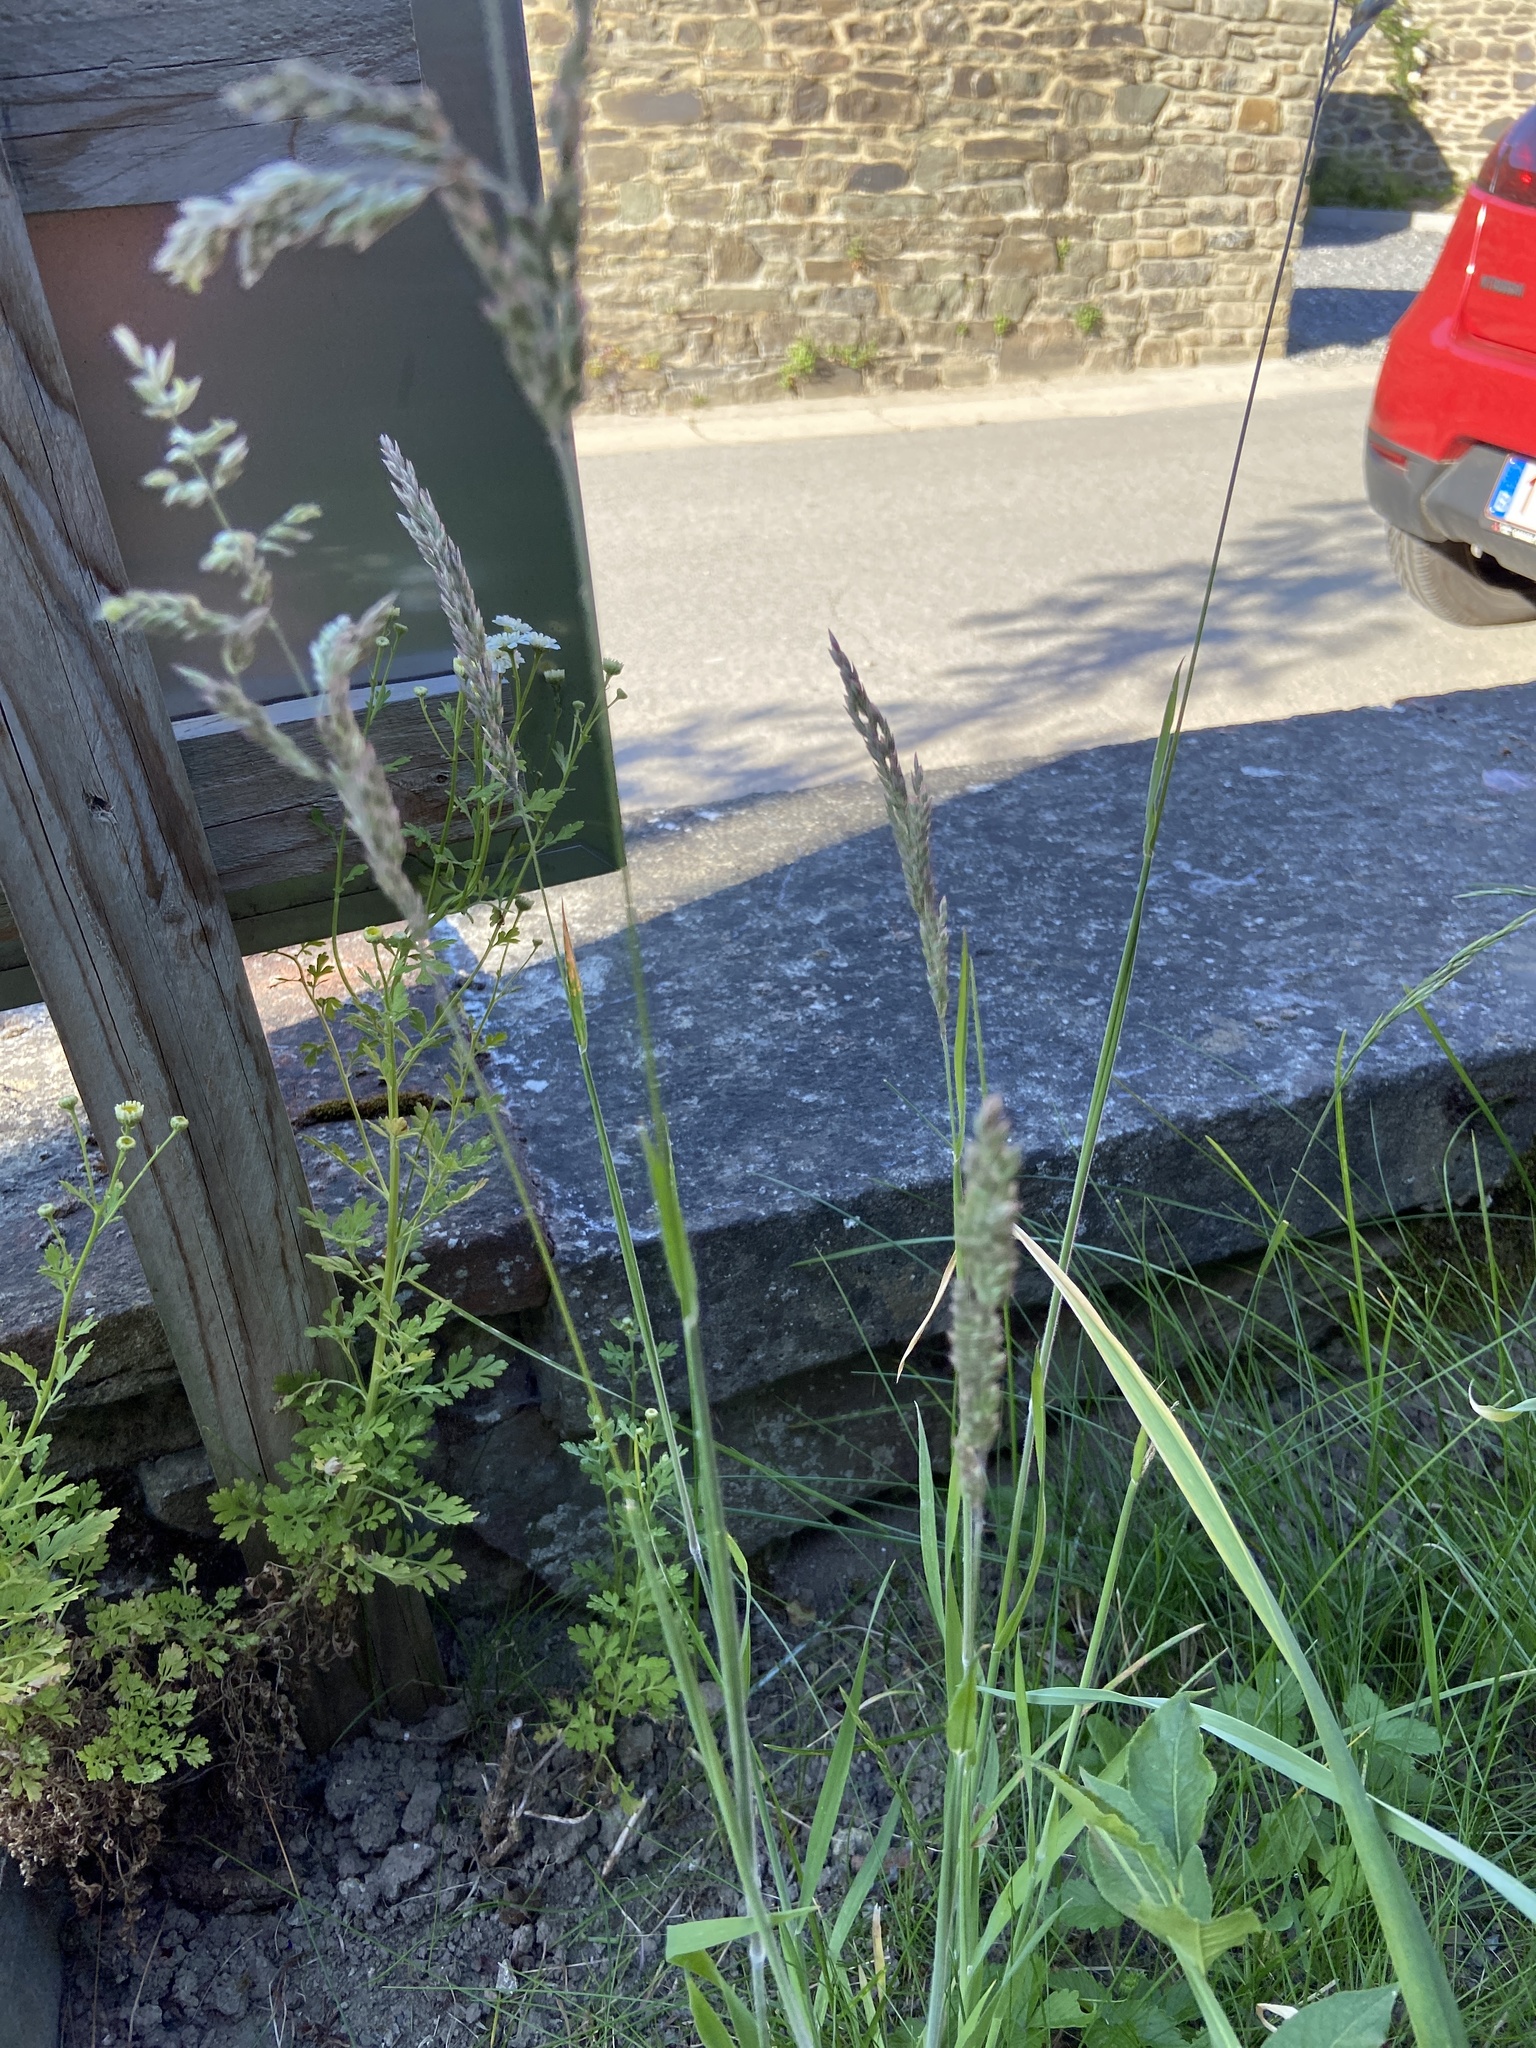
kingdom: Plantae
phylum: Tracheophyta
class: Liliopsida
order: Poales
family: Poaceae
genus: Holcus
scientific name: Holcus lanatus
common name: Yorkshire-fog
